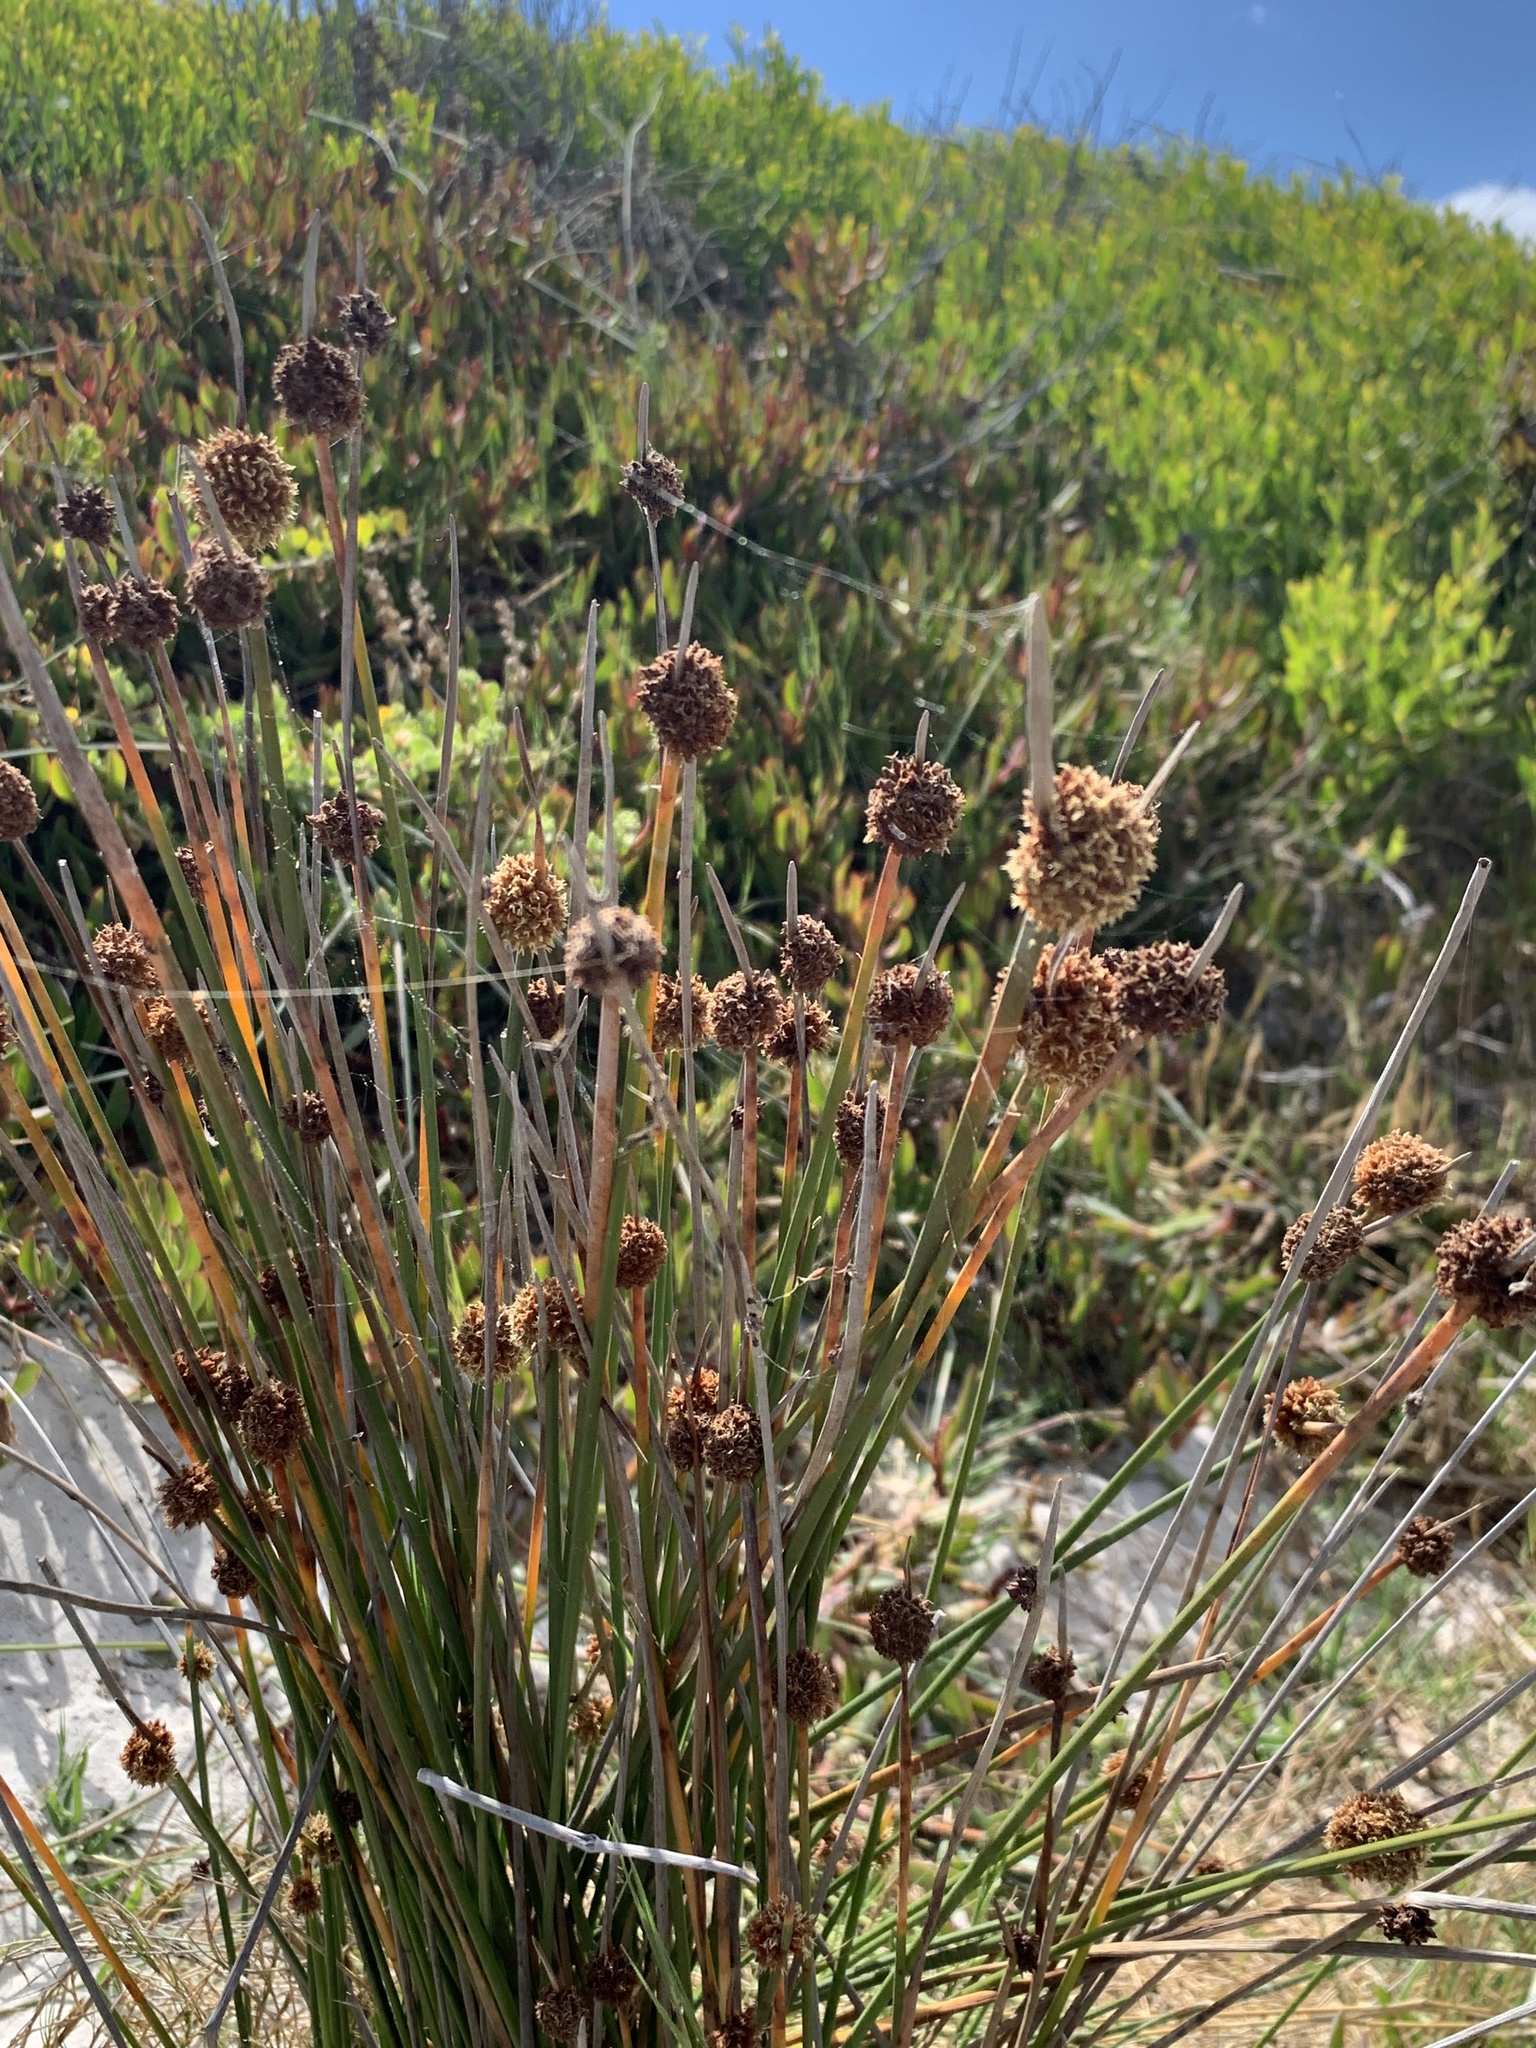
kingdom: Plantae
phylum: Tracheophyta
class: Liliopsida
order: Poales
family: Cyperaceae
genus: Ficinia
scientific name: Ficinia nodosa
